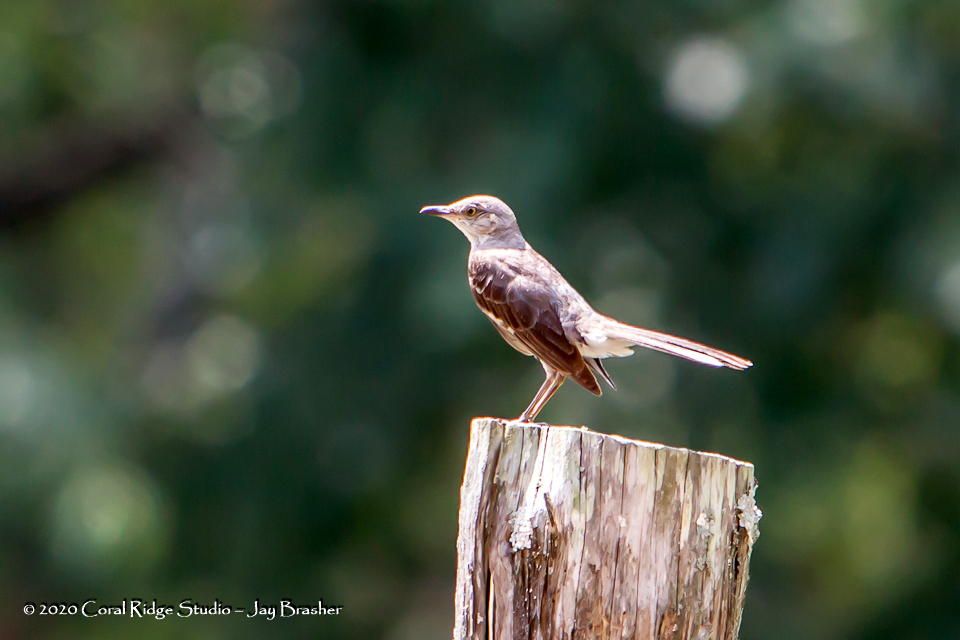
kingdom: Animalia
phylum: Chordata
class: Aves
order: Passeriformes
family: Mimidae
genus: Mimus
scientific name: Mimus polyglottos
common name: Northern mockingbird
